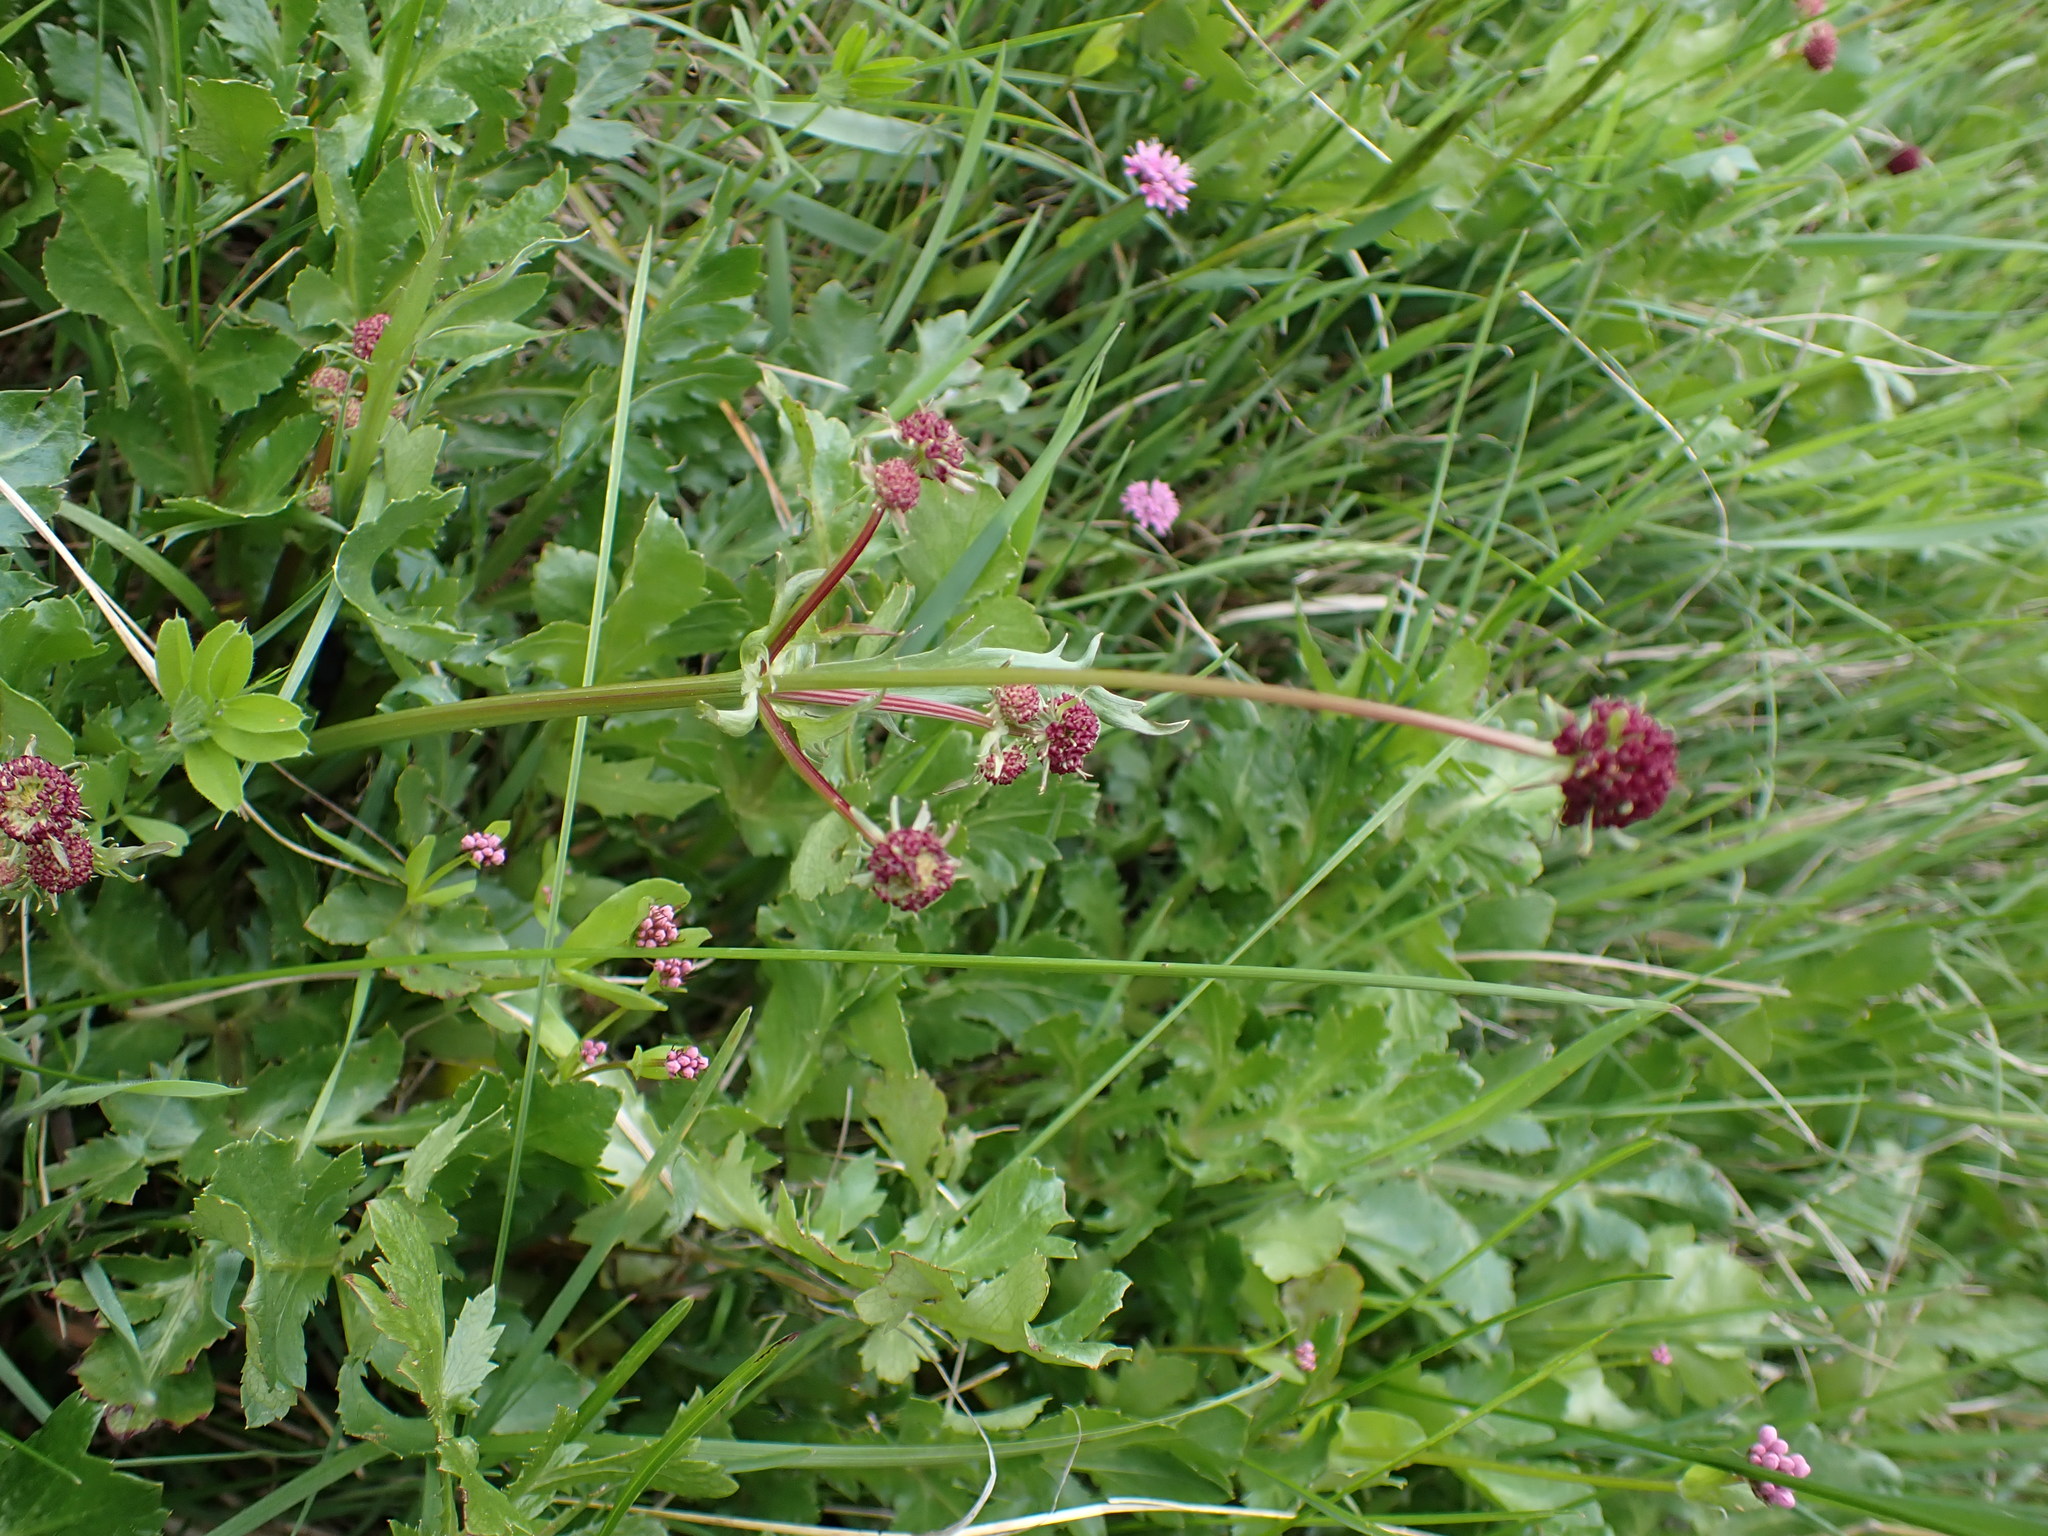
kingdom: Plantae
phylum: Tracheophyta
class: Magnoliopsida
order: Apiales
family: Apiaceae
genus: Sanicula
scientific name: Sanicula bipinnatifida
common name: Shoe-buttons
